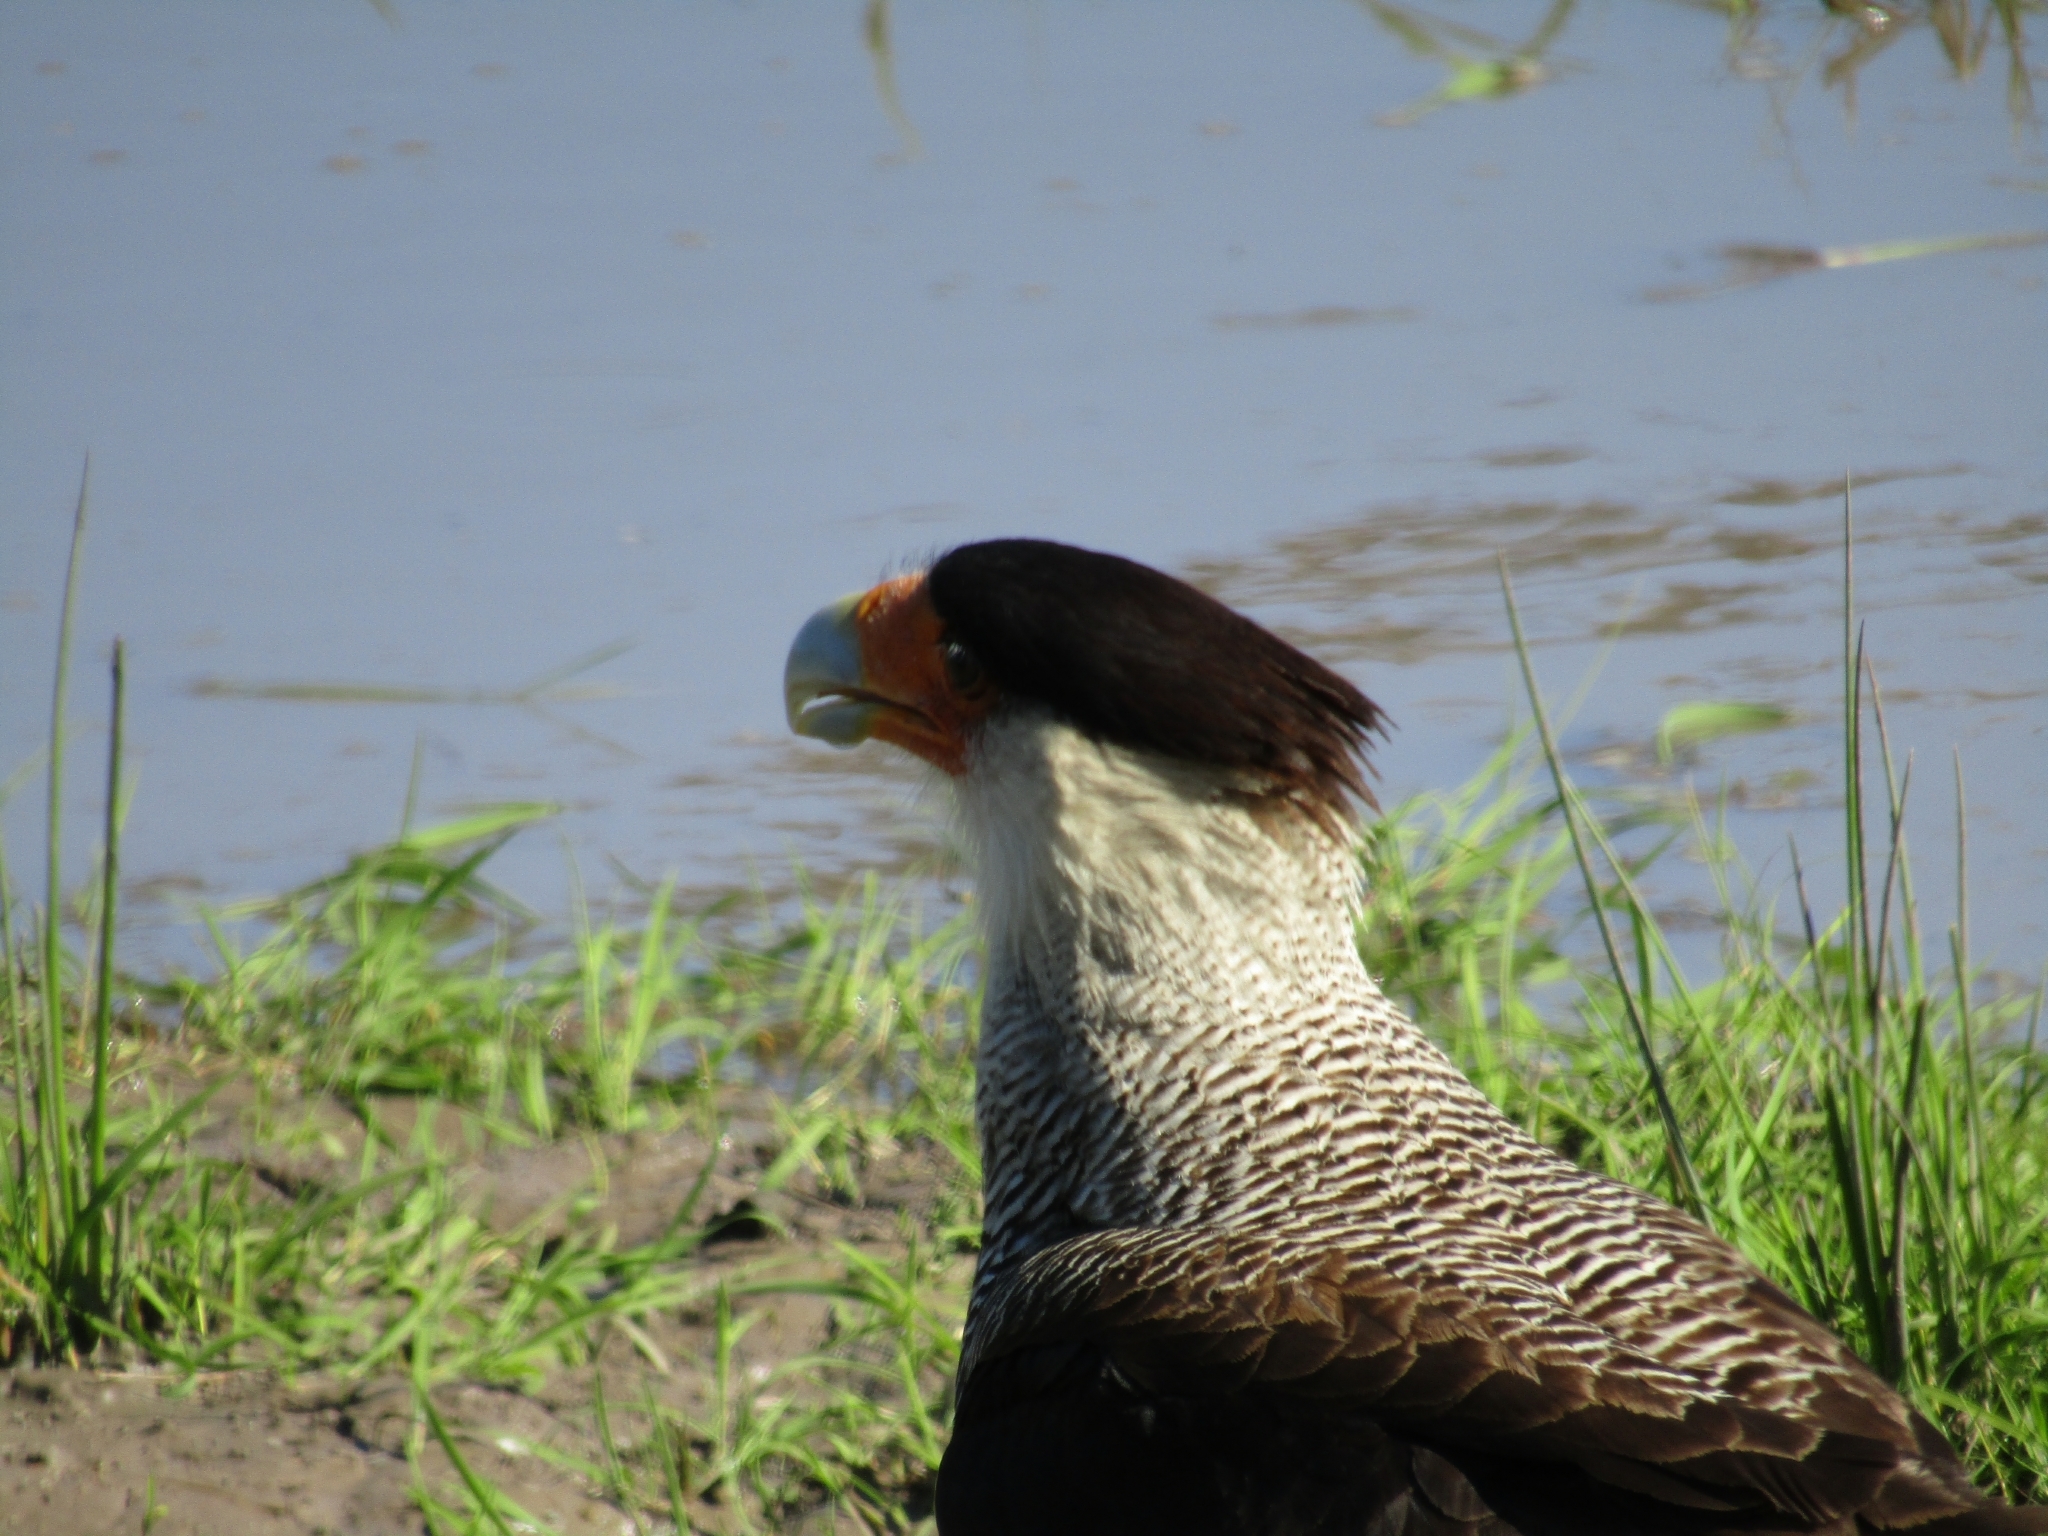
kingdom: Animalia
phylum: Chordata
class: Aves
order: Falconiformes
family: Falconidae
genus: Caracara
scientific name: Caracara plancus
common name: Southern caracara
